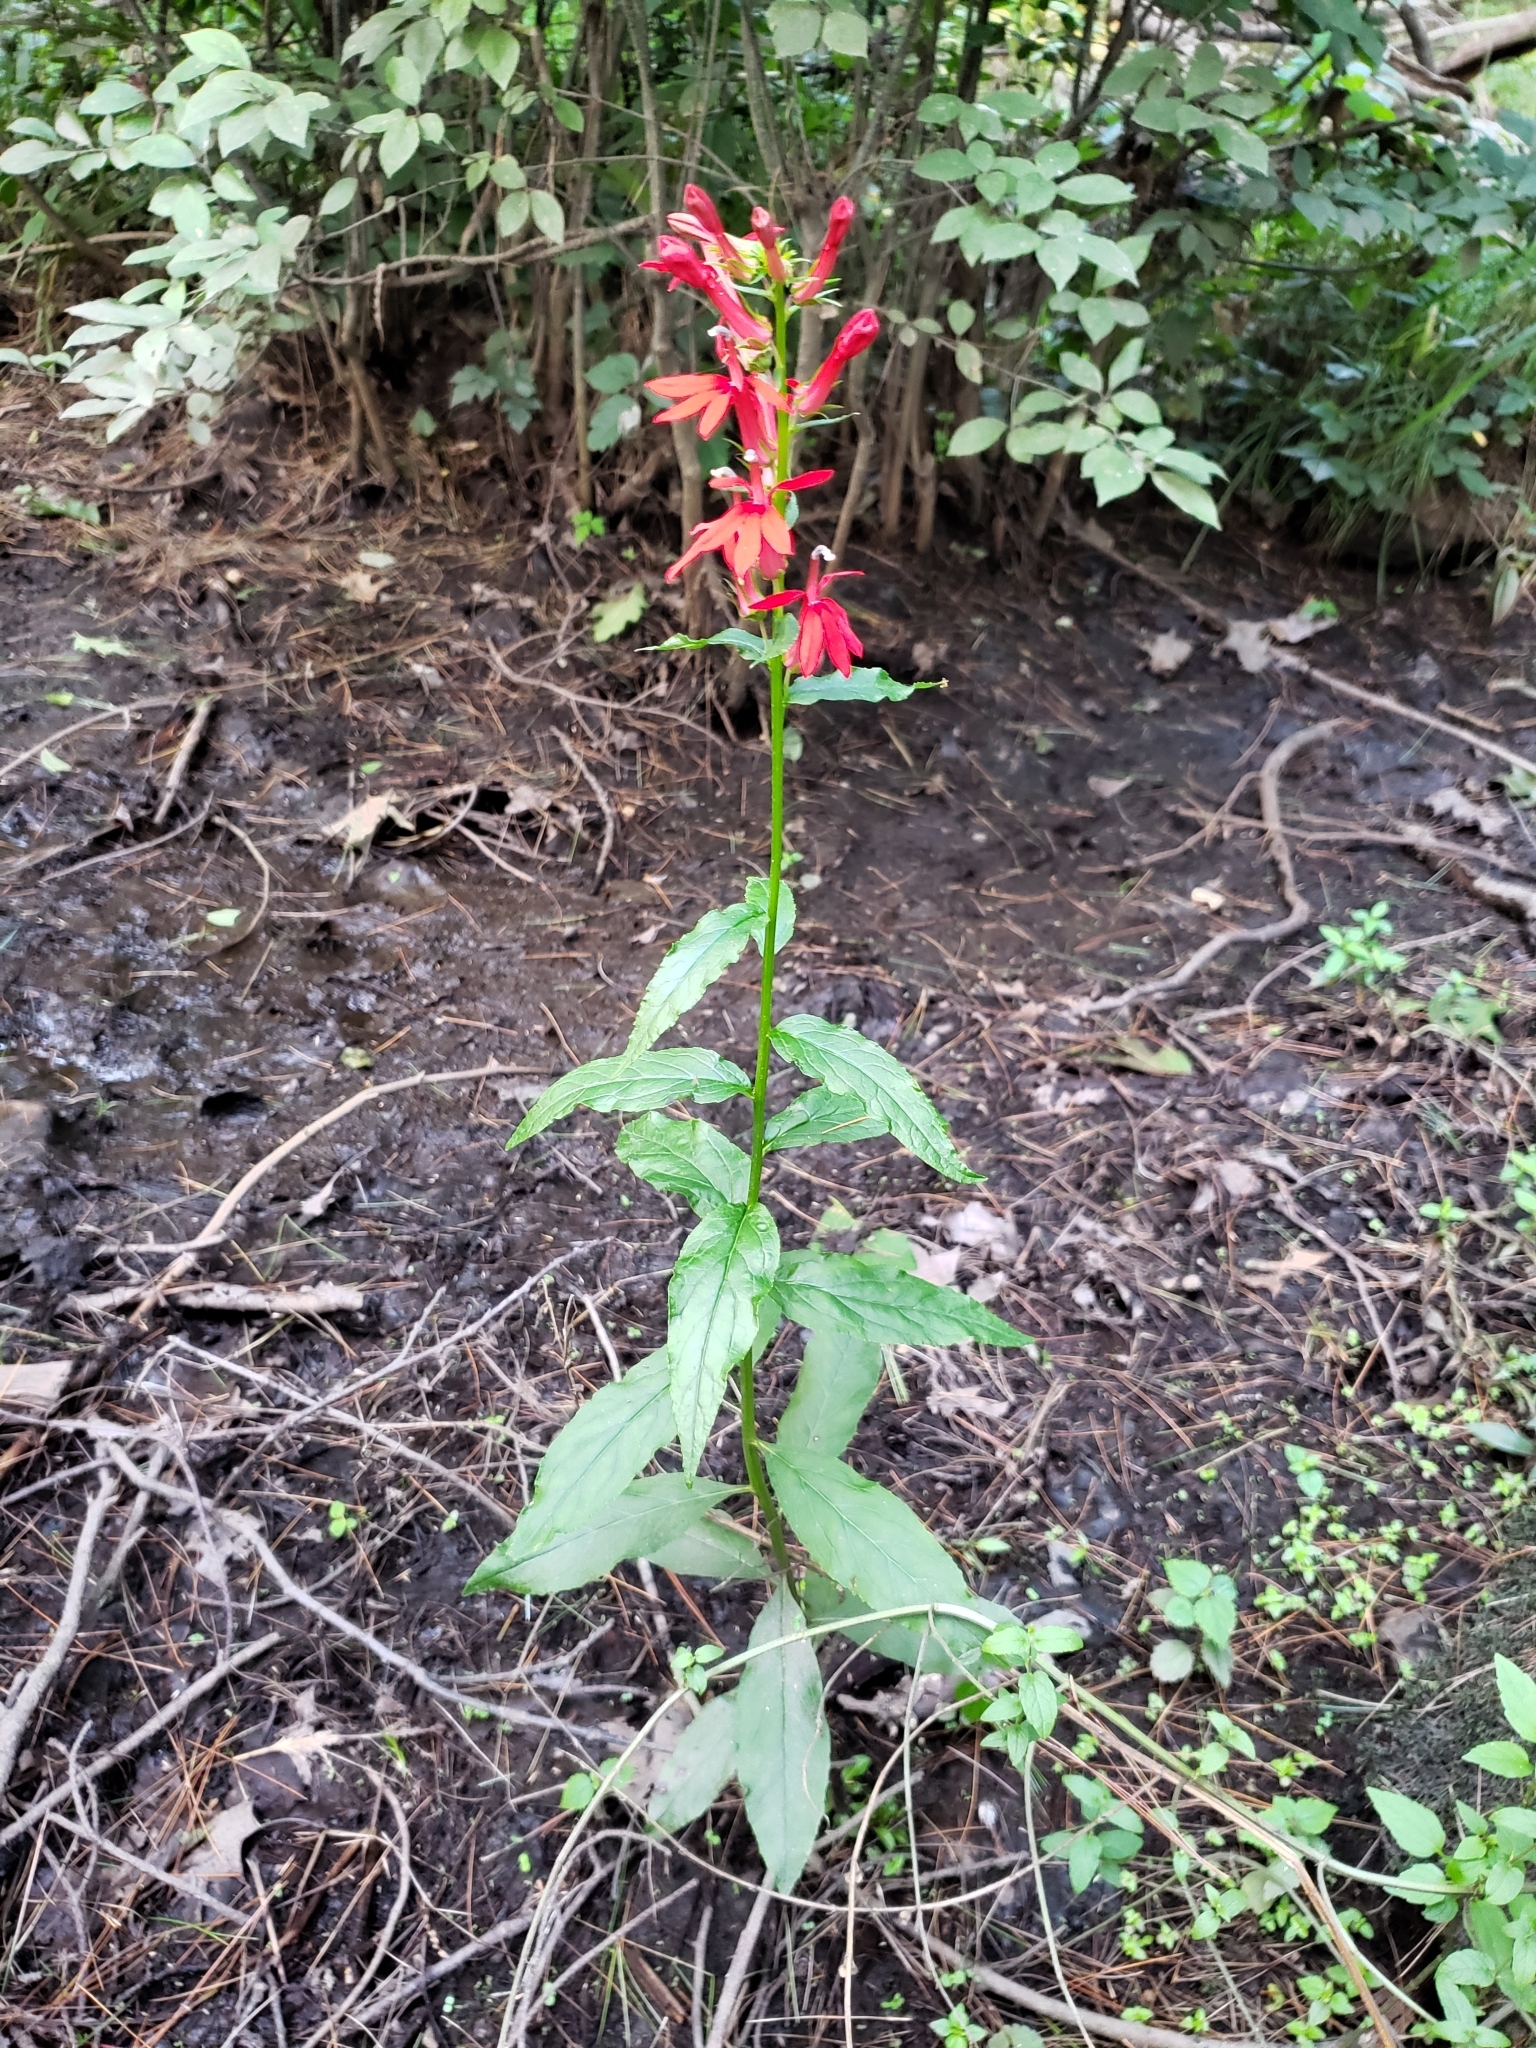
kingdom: Plantae
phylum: Tracheophyta
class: Magnoliopsida
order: Asterales
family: Campanulaceae
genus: Lobelia
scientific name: Lobelia cardinalis
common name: Cardinal flower
